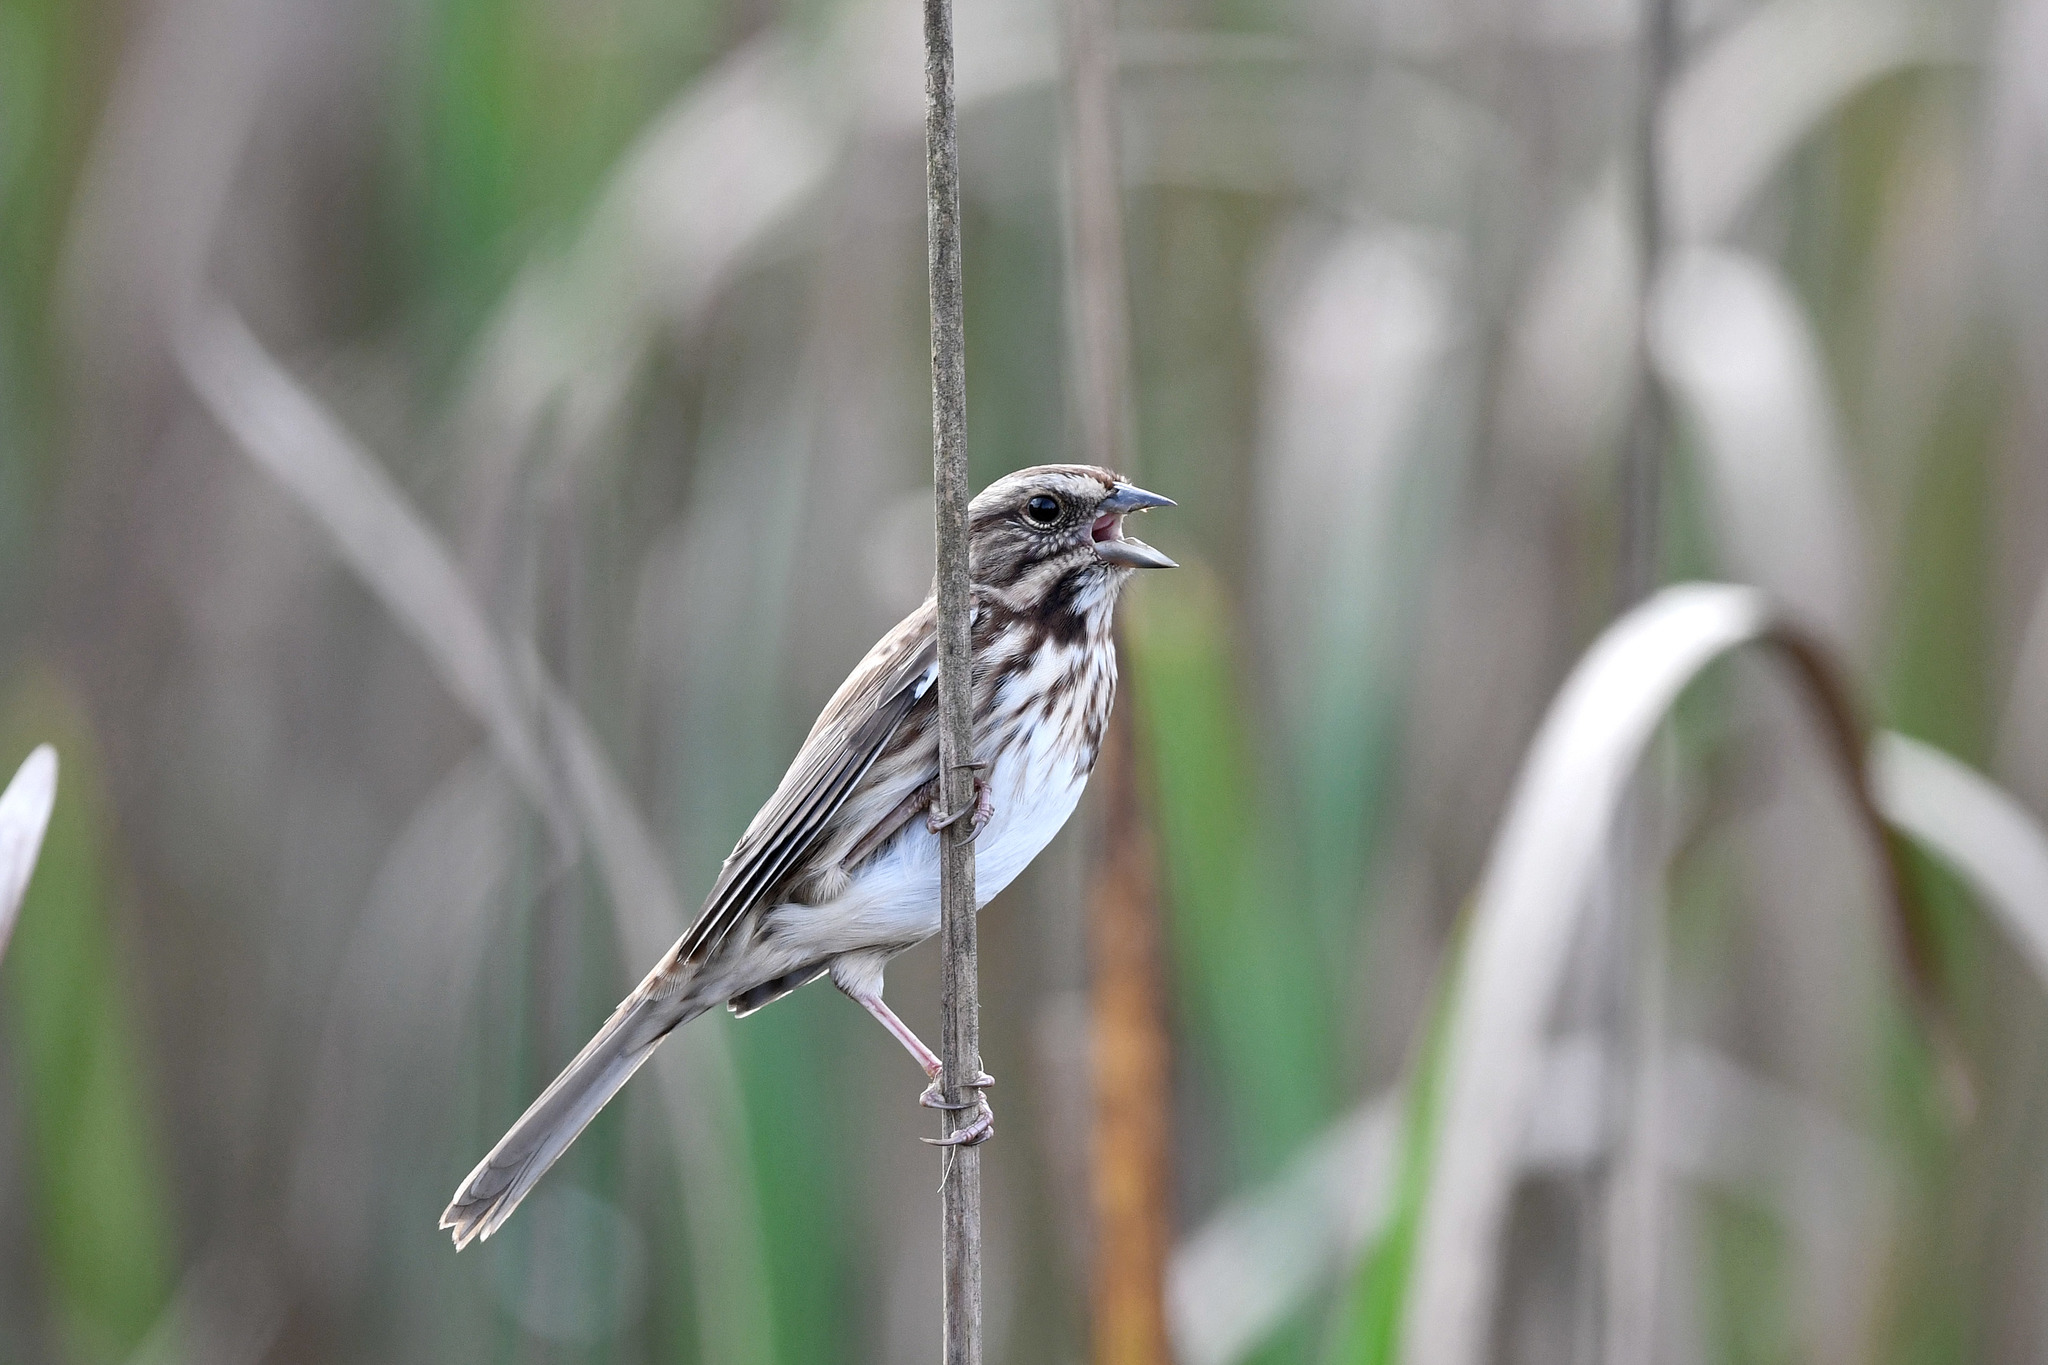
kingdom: Animalia
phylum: Chordata
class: Aves
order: Passeriformes
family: Passerellidae
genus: Melospiza
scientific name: Melospiza melodia
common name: Song sparrow
